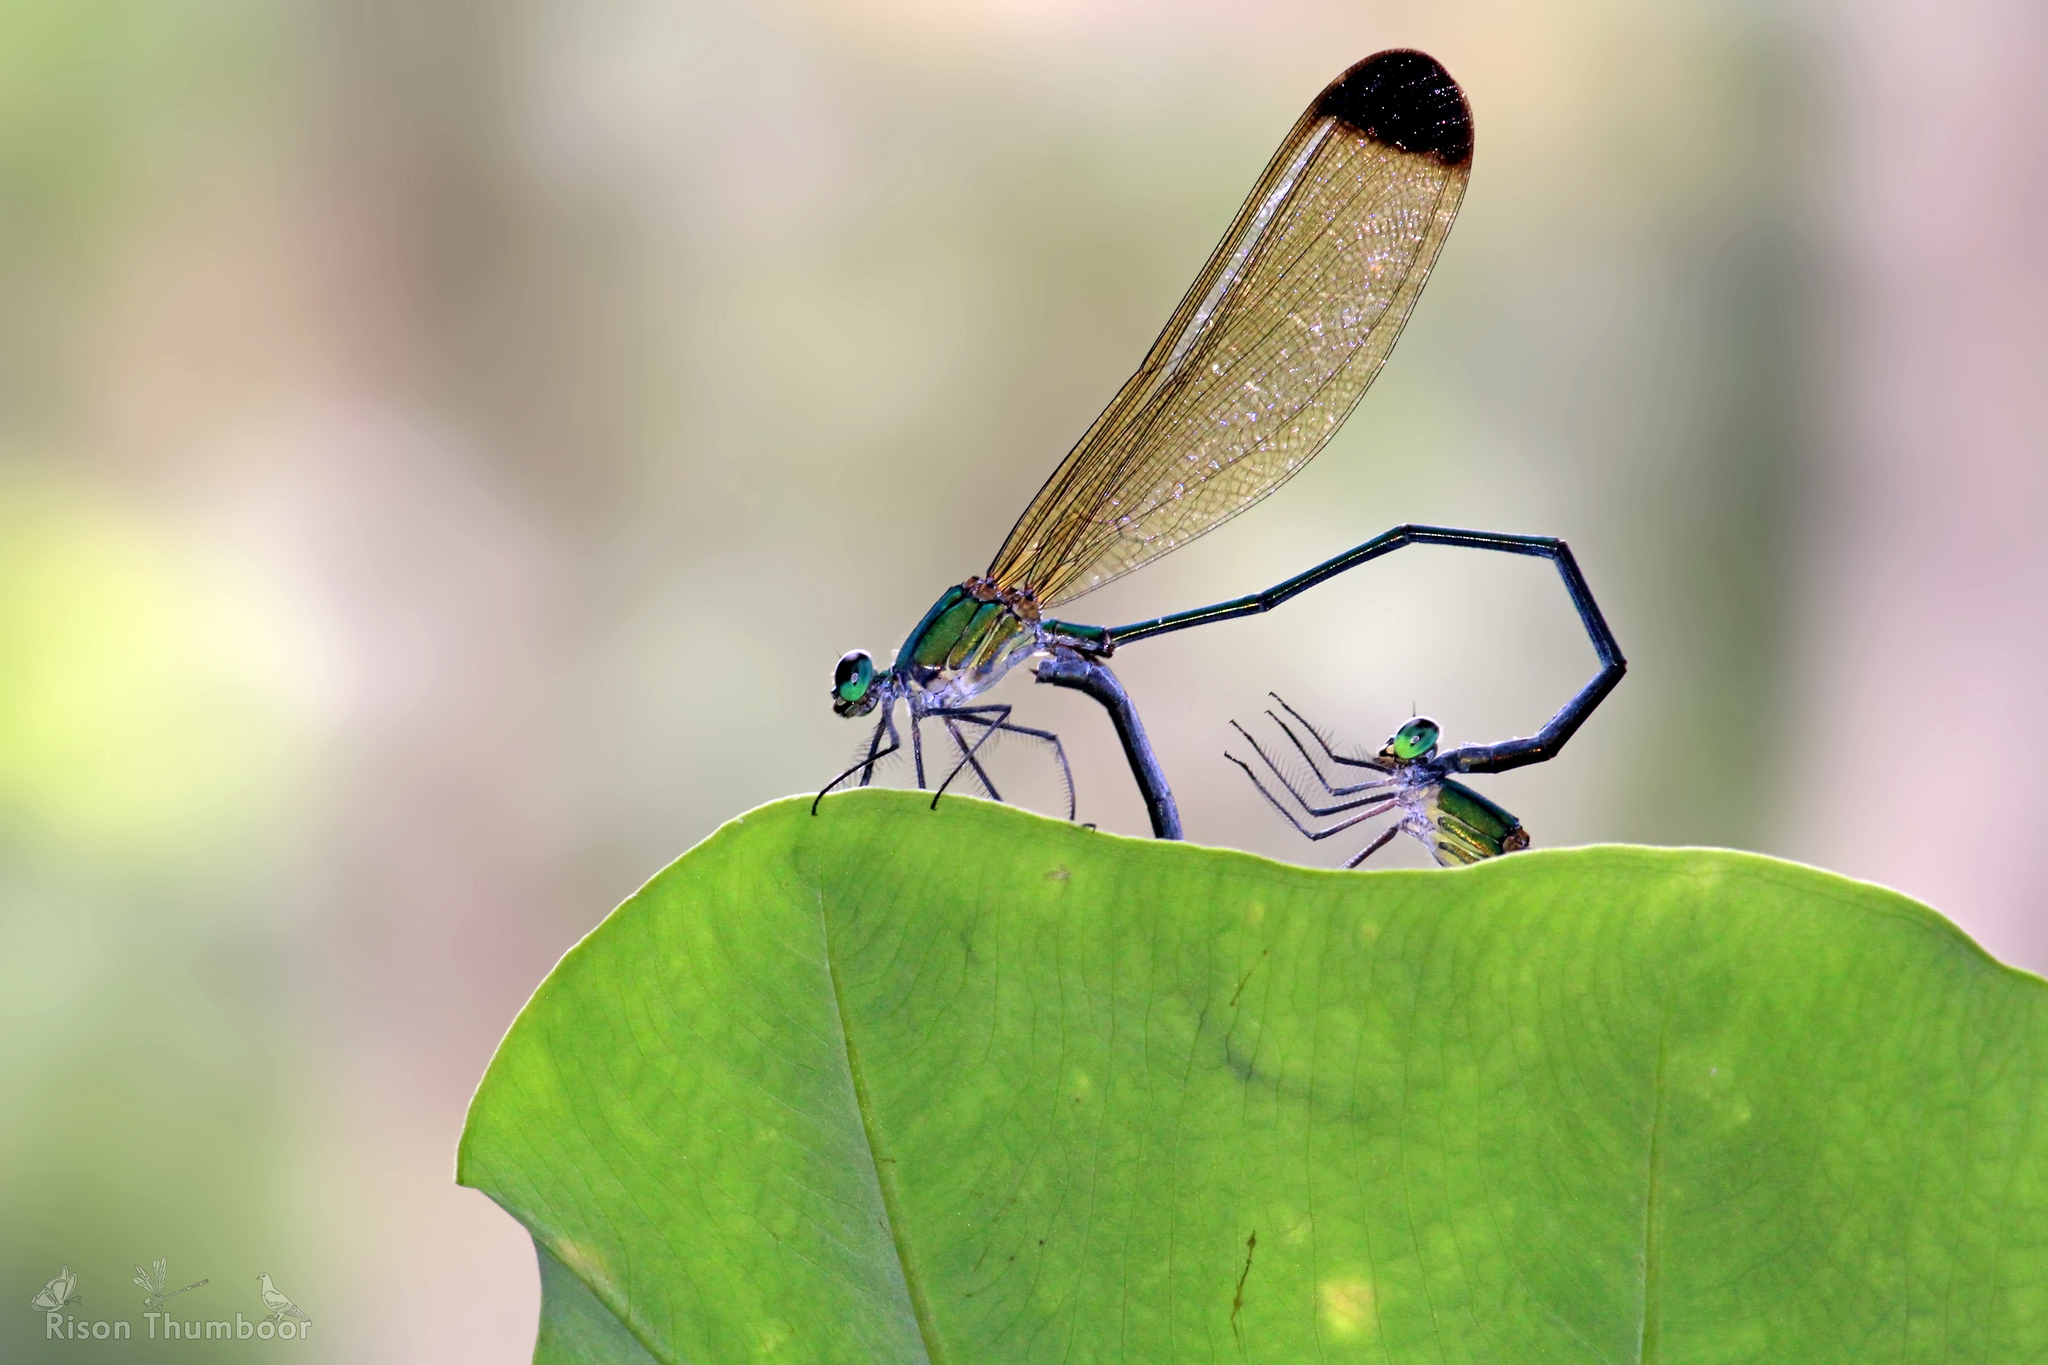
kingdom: Animalia
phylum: Arthropoda
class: Insecta
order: Odonata
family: Calopterygidae
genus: Vestalis
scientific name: Vestalis apicalis
